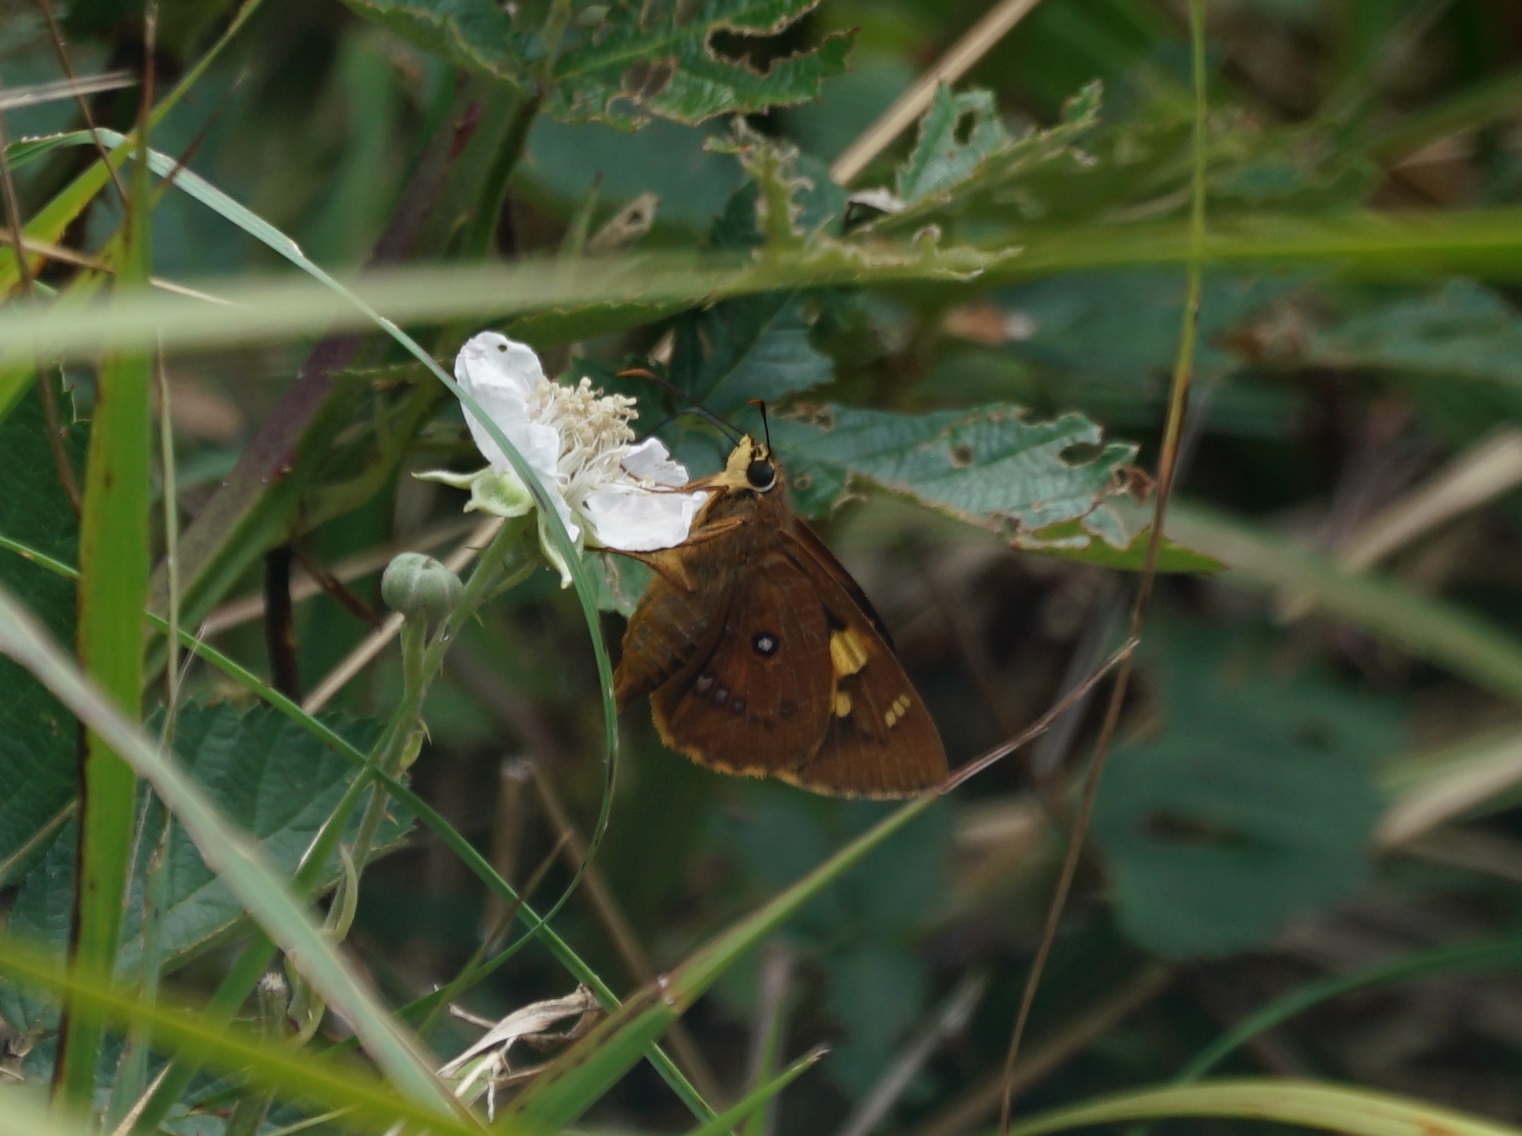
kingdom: Animalia
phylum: Arthropoda
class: Insecta
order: Lepidoptera
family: Hesperiidae
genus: Trapezites
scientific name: Trapezites symmomus
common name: Splendid ochre
